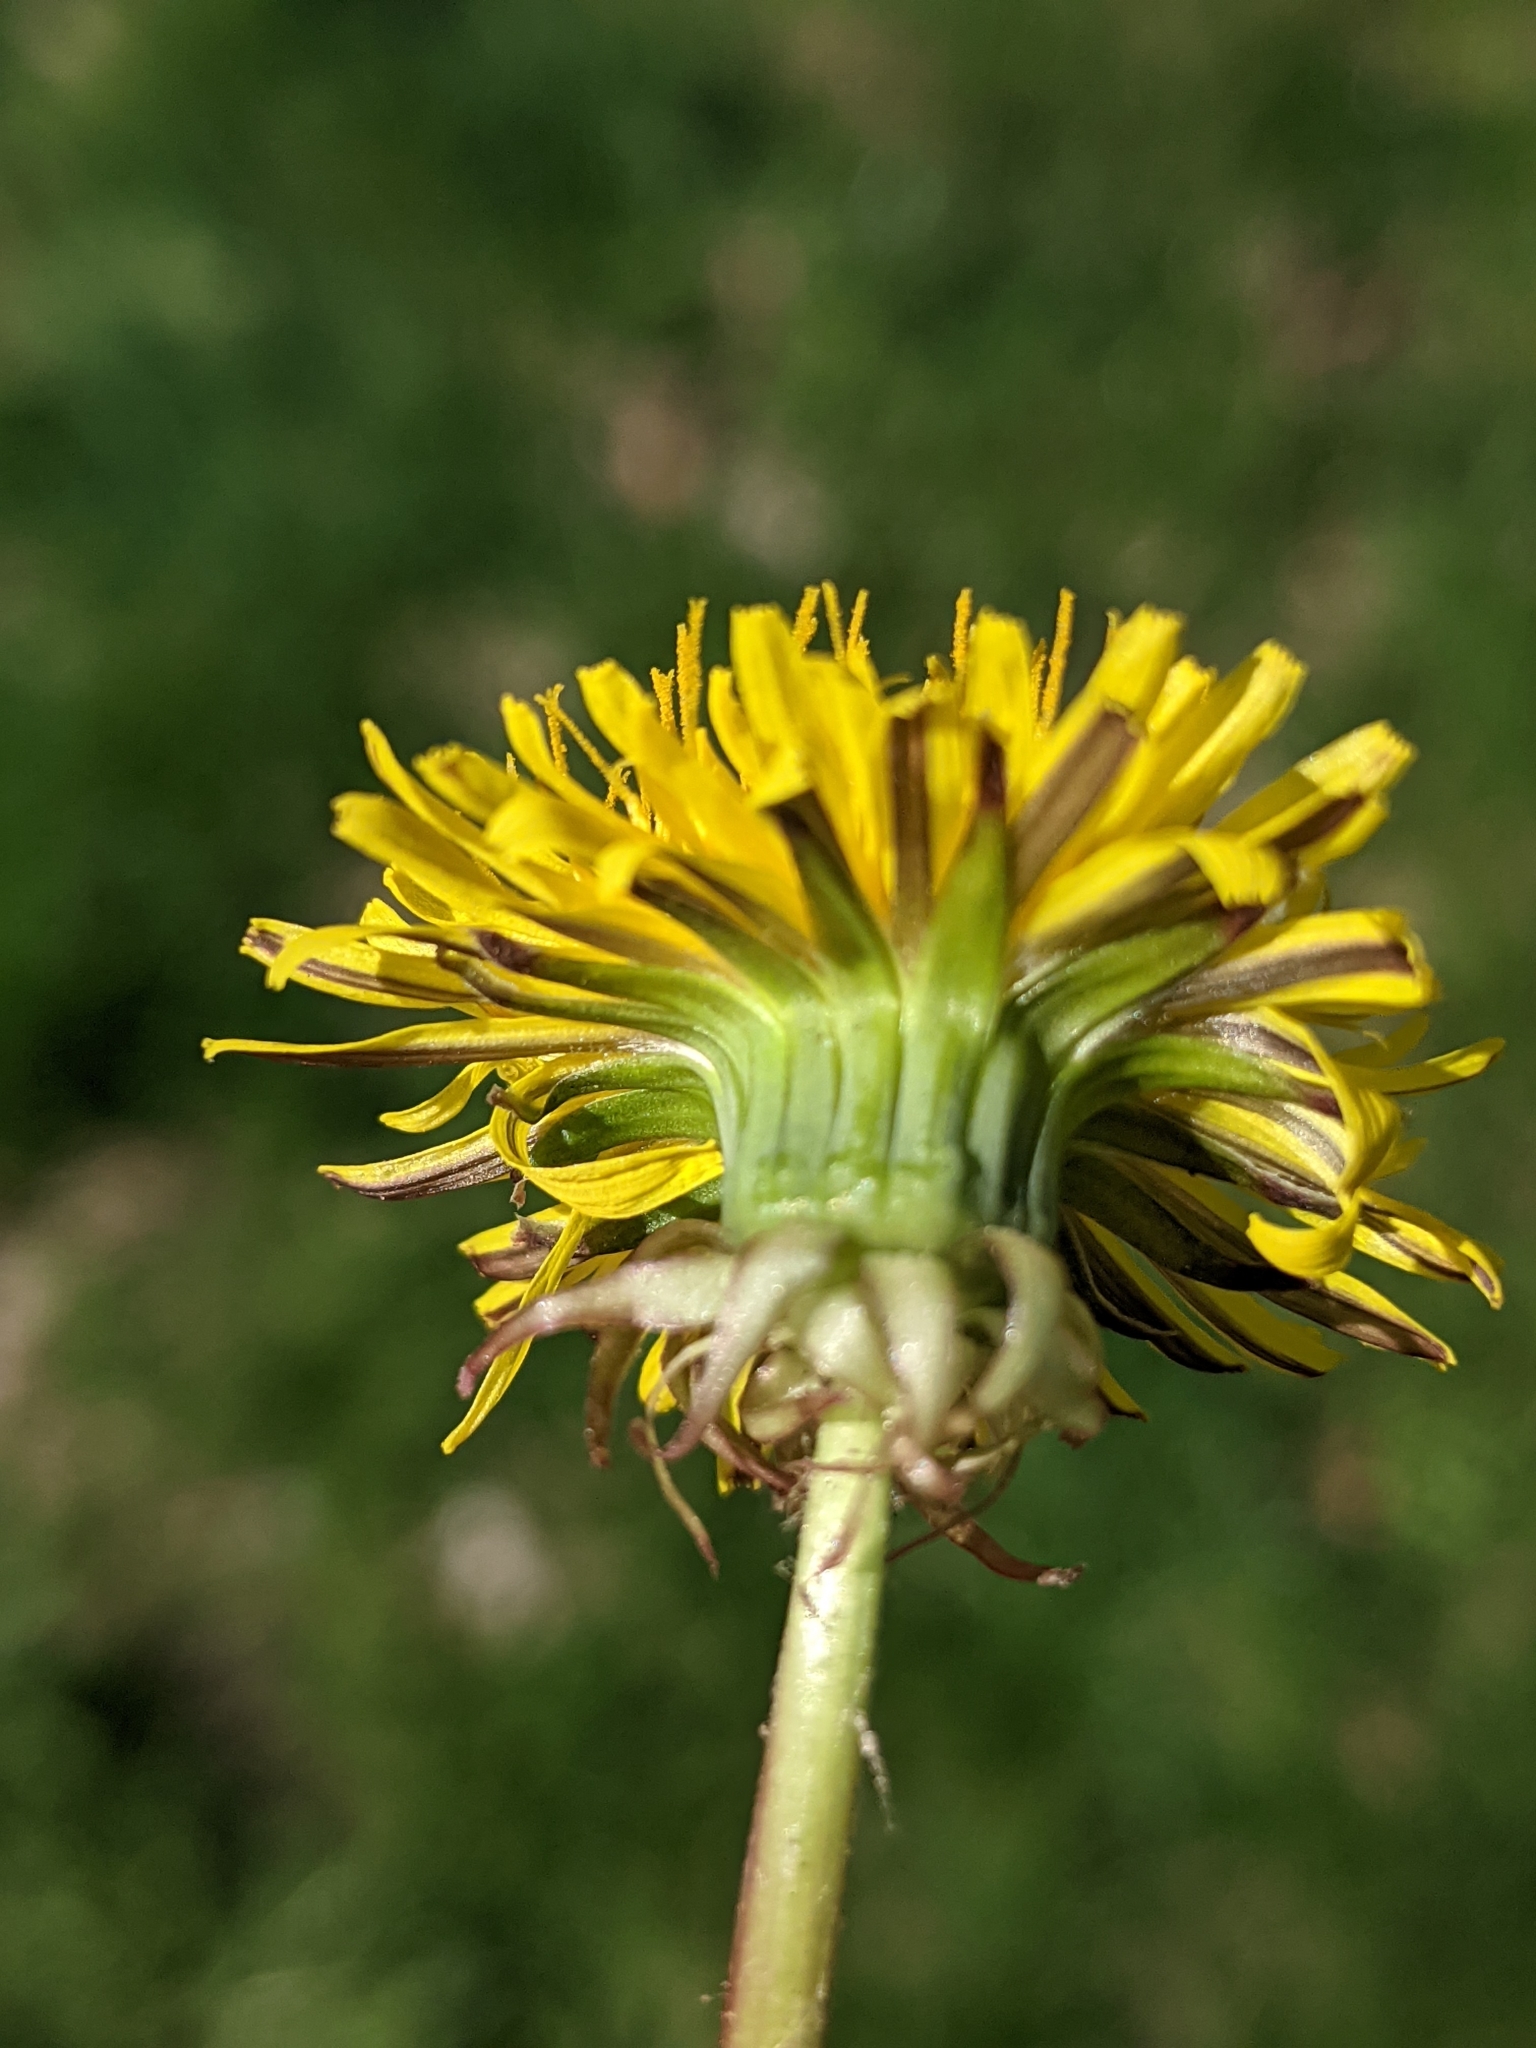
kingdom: Plantae
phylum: Tracheophyta
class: Magnoliopsida
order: Asterales
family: Asteraceae
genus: Taraxacum
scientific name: Taraxacum officinale
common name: Common dandelion
